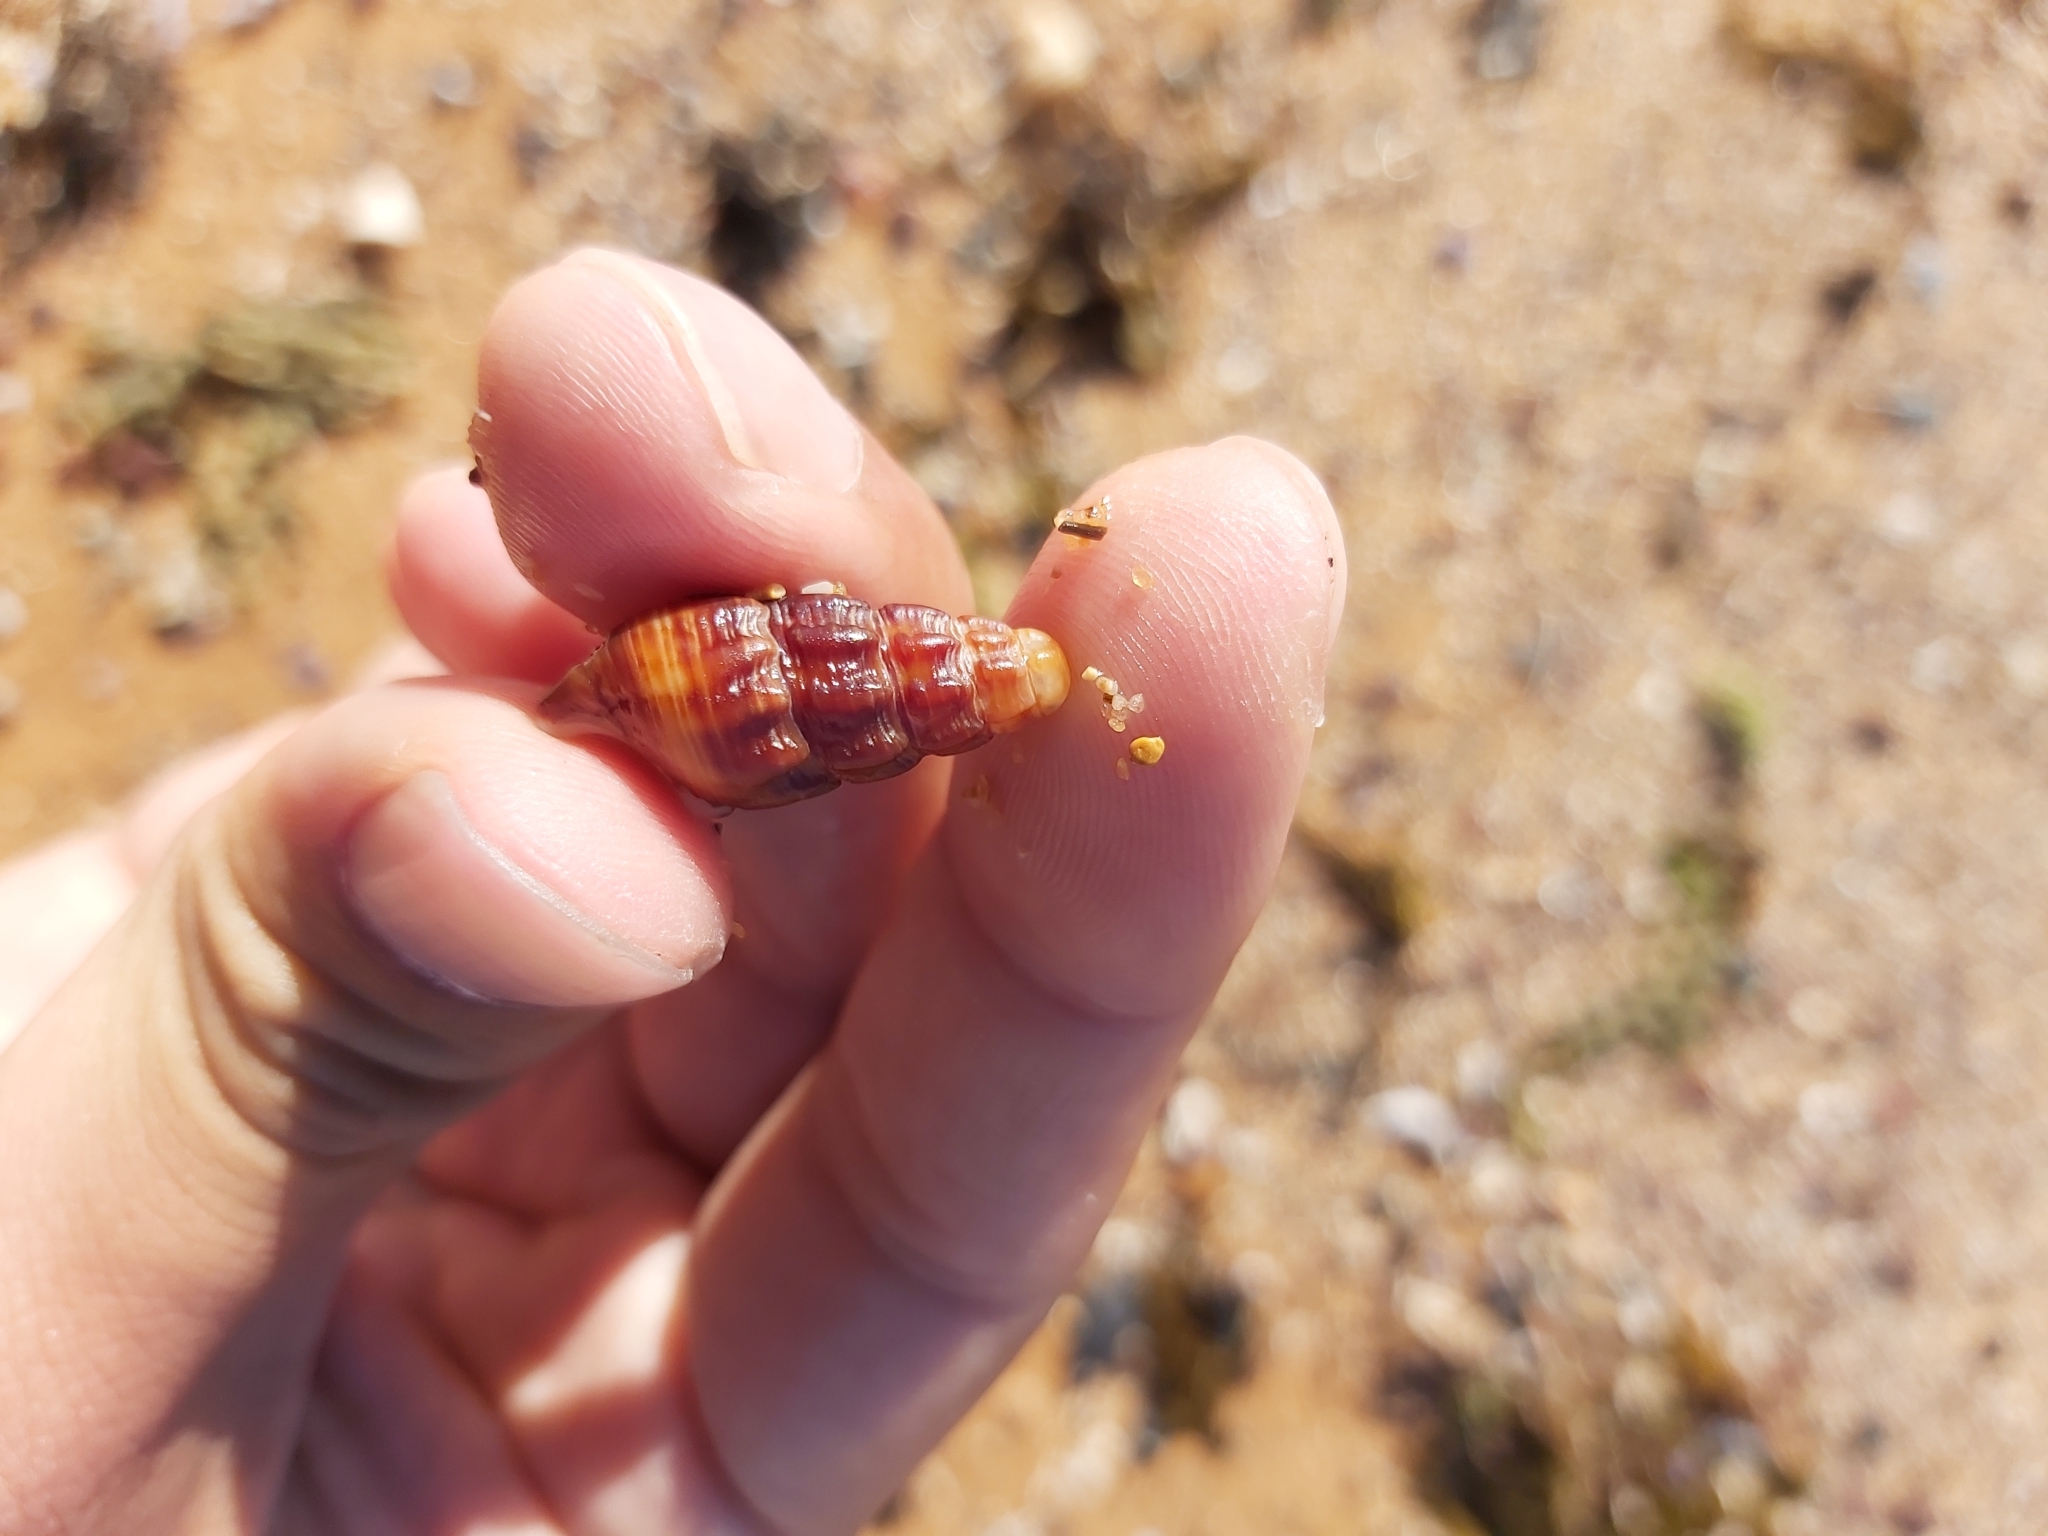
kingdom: Animalia
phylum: Mollusca
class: Gastropoda
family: Batillariidae
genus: Batillaria
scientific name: Batillaria australis
